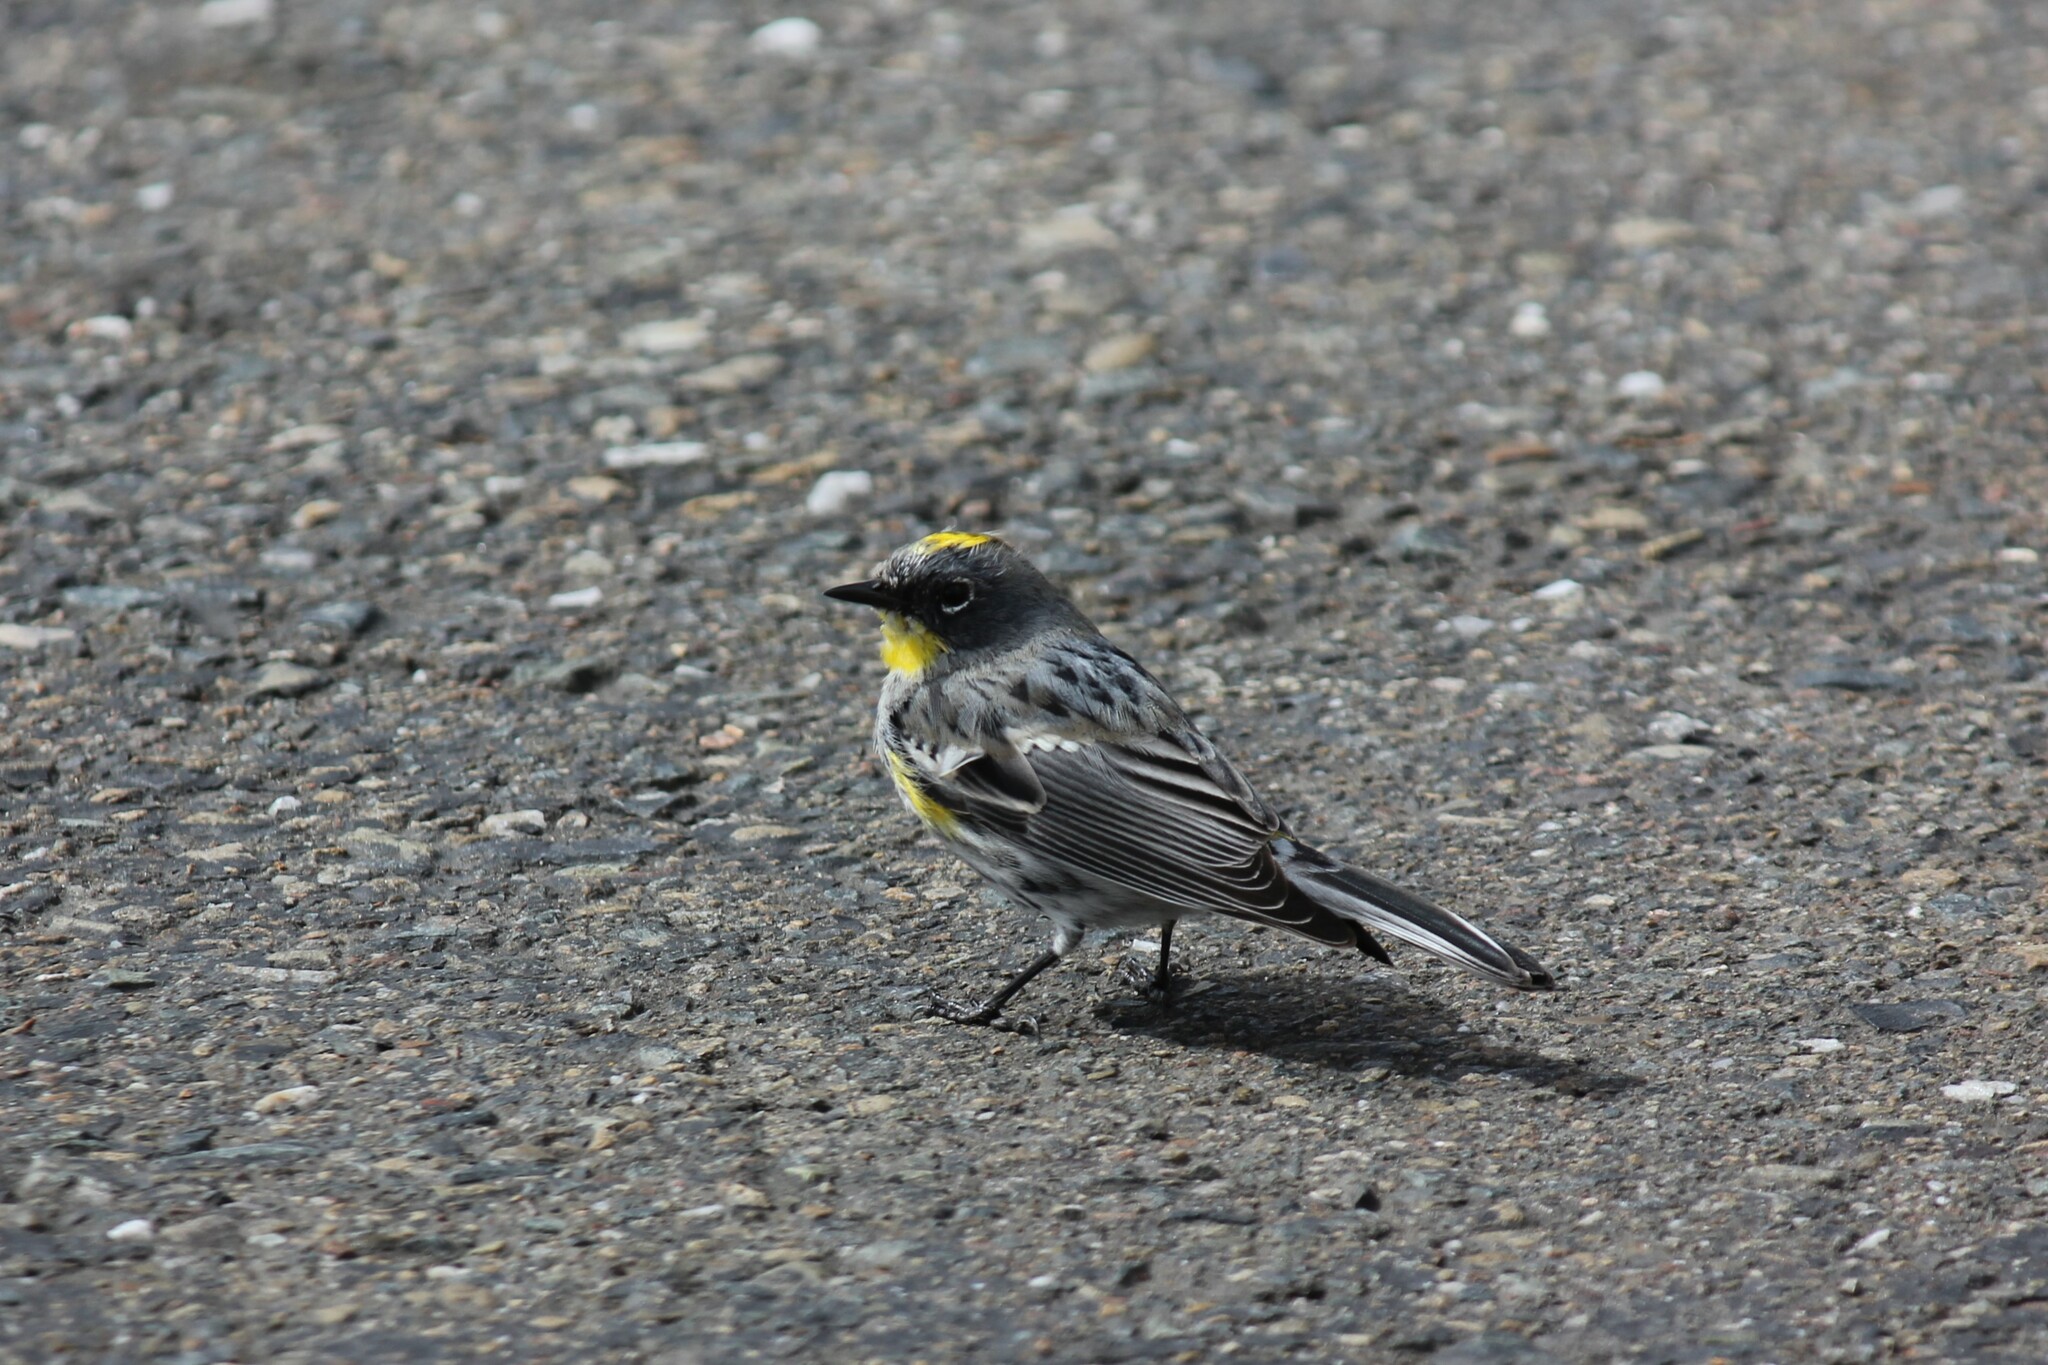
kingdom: Animalia
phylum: Chordata
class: Aves
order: Passeriformes
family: Parulidae
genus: Setophaga
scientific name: Setophaga coronata
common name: Myrtle warbler
